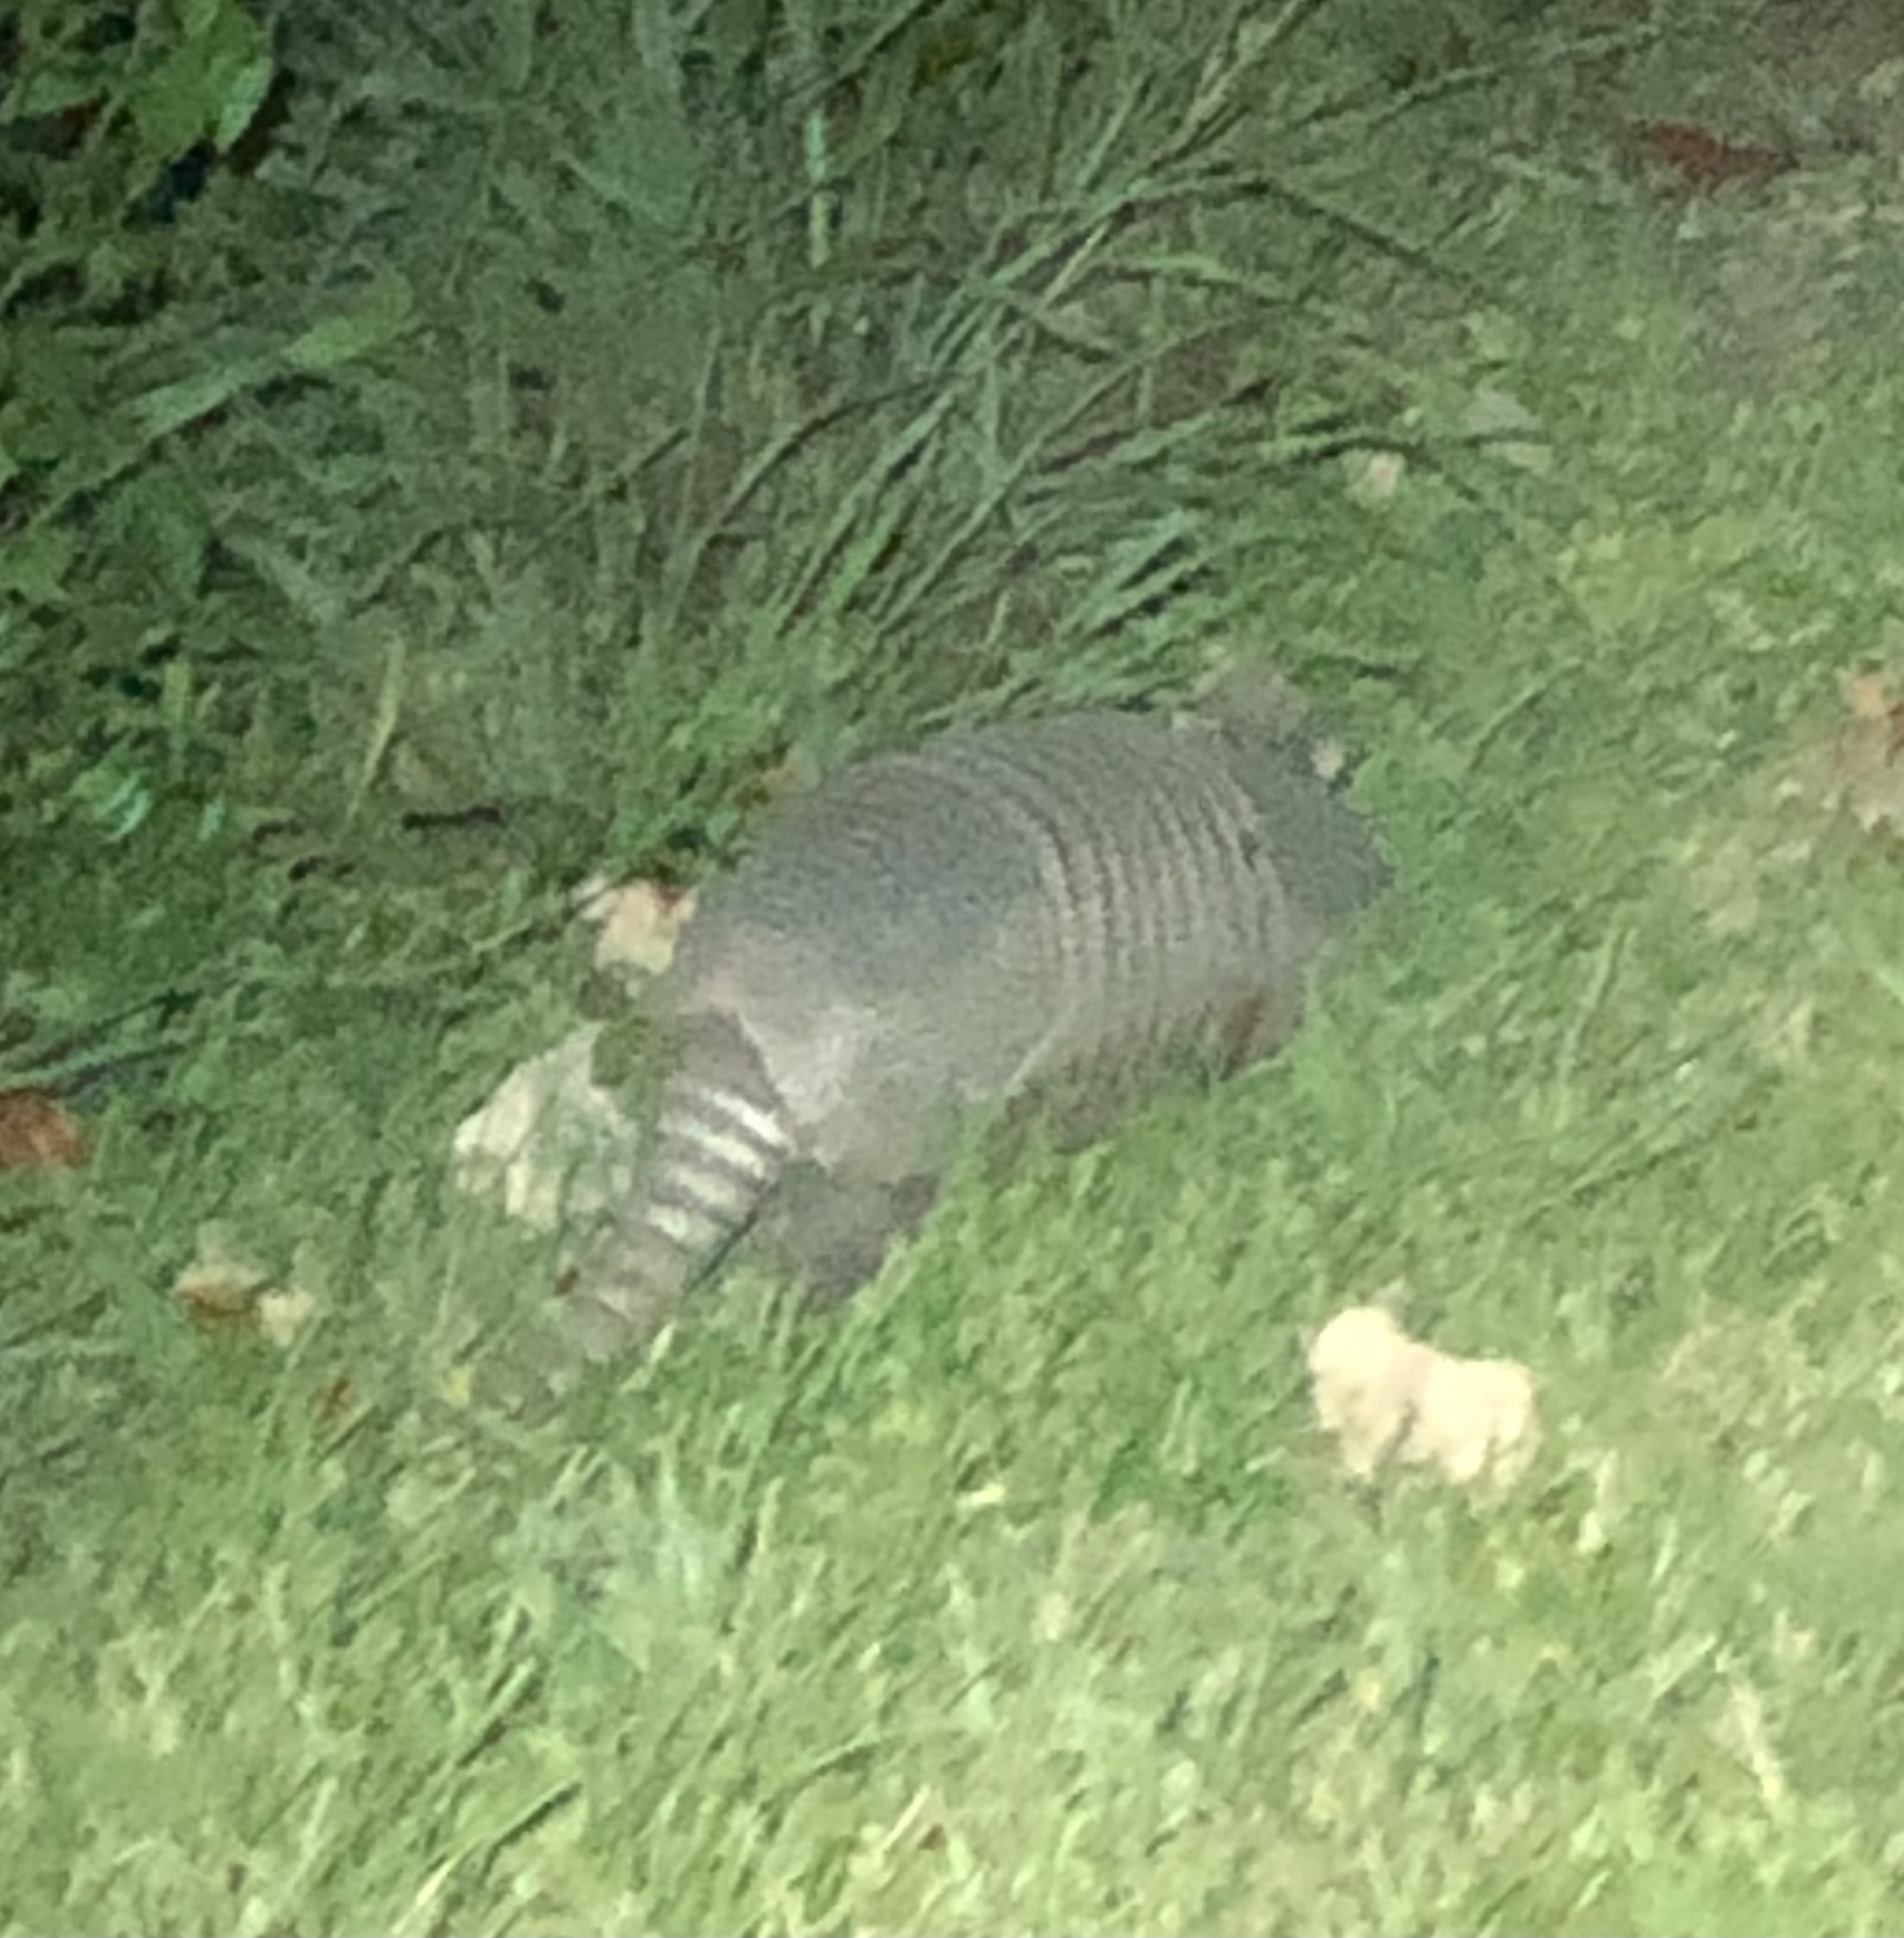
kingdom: Animalia
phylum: Chordata
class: Mammalia
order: Cingulata
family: Dasypodidae
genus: Dasypus
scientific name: Dasypus novemcinctus
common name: Nine-banded armadillo
